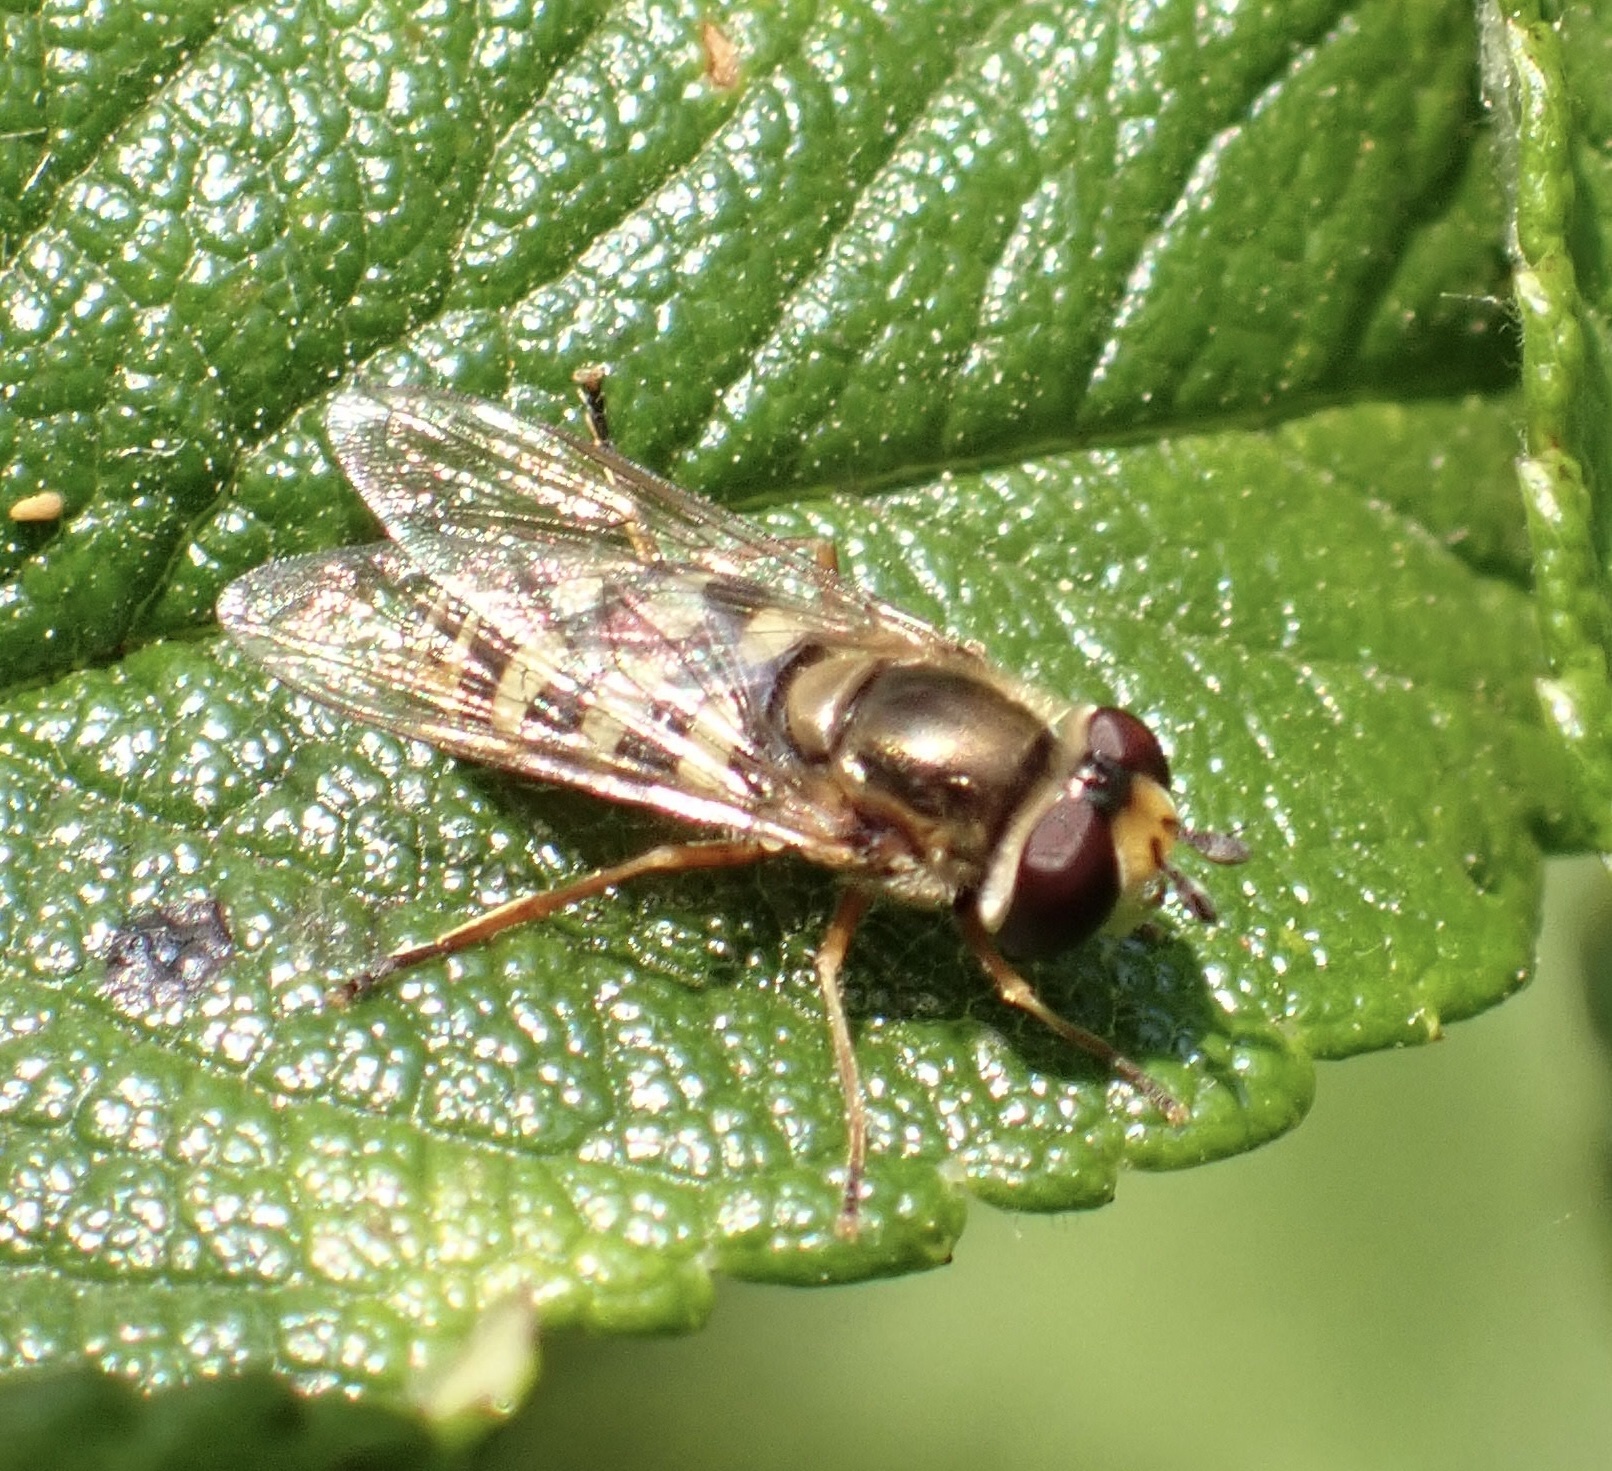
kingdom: Animalia
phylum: Arthropoda
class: Insecta
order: Diptera
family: Syrphidae
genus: Eupeodes
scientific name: Eupeodes corollae
